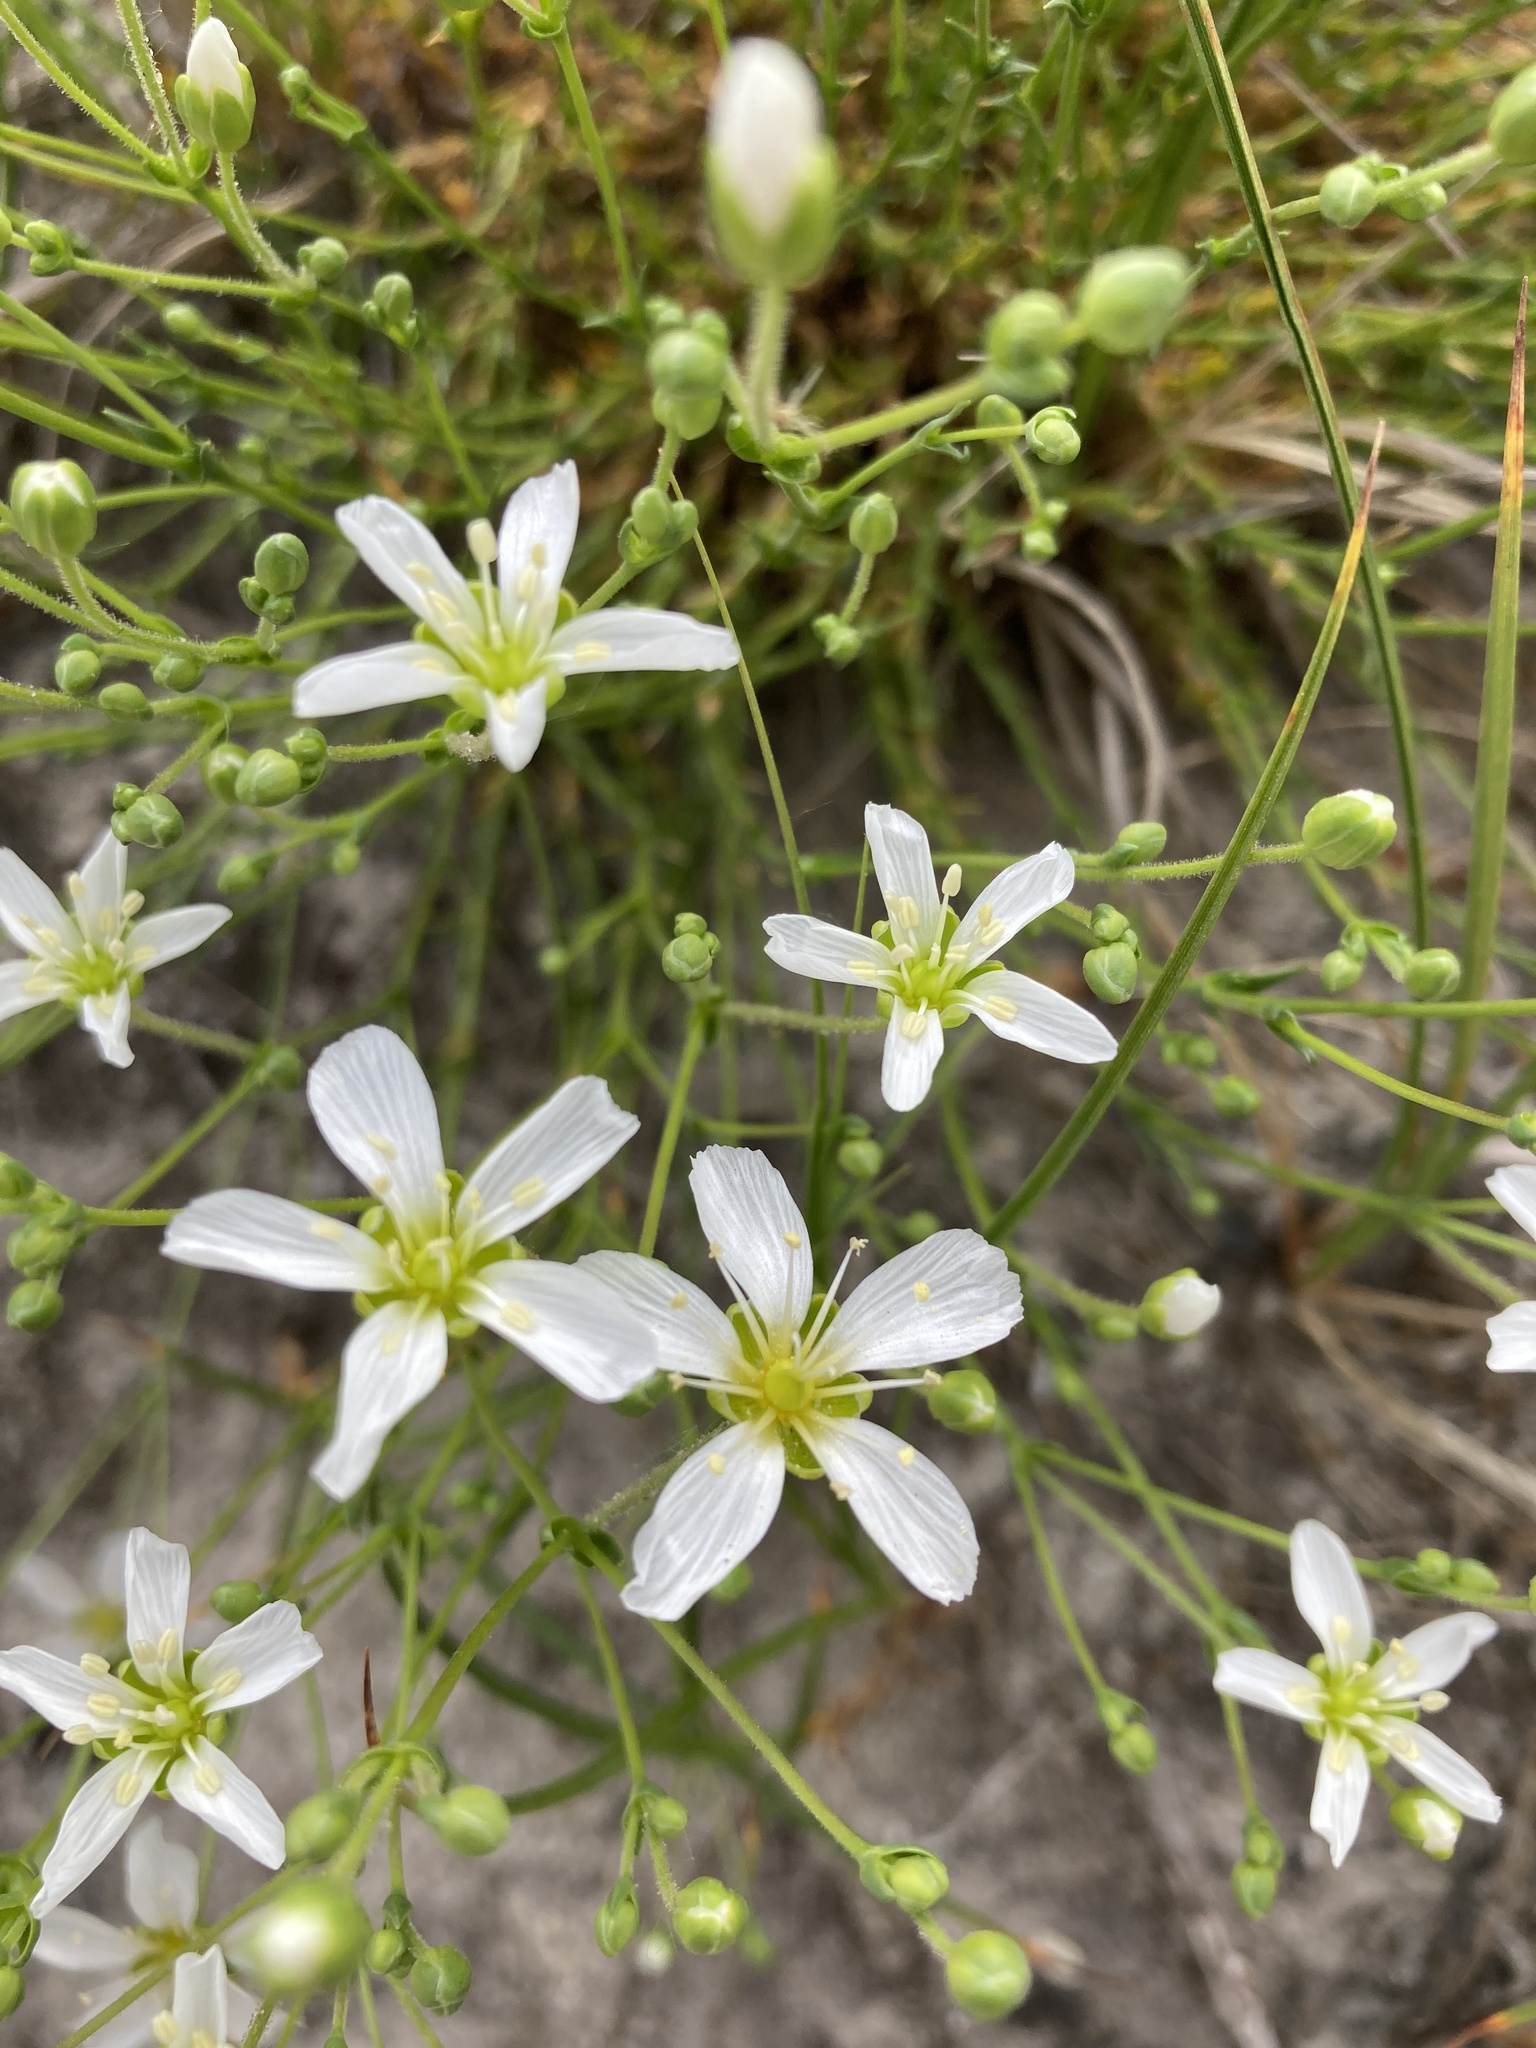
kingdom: Plantae
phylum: Tracheophyta
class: Magnoliopsida
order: Caryophyllales
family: Caryophyllaceae
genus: Geocarpon
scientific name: Geocarpon carolinianum
